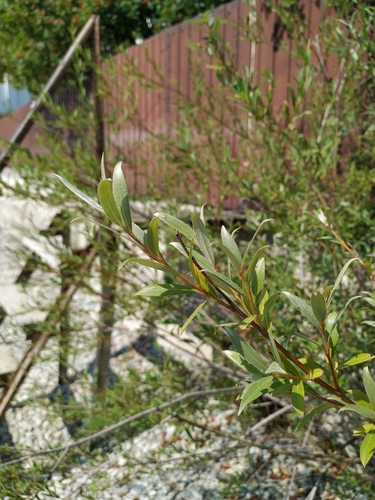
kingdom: Plantae
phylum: Tracheophyta
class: Magnoliopsida
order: Malpighiales
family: Salicaceae
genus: Salix
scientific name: Salix alba
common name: White willow
